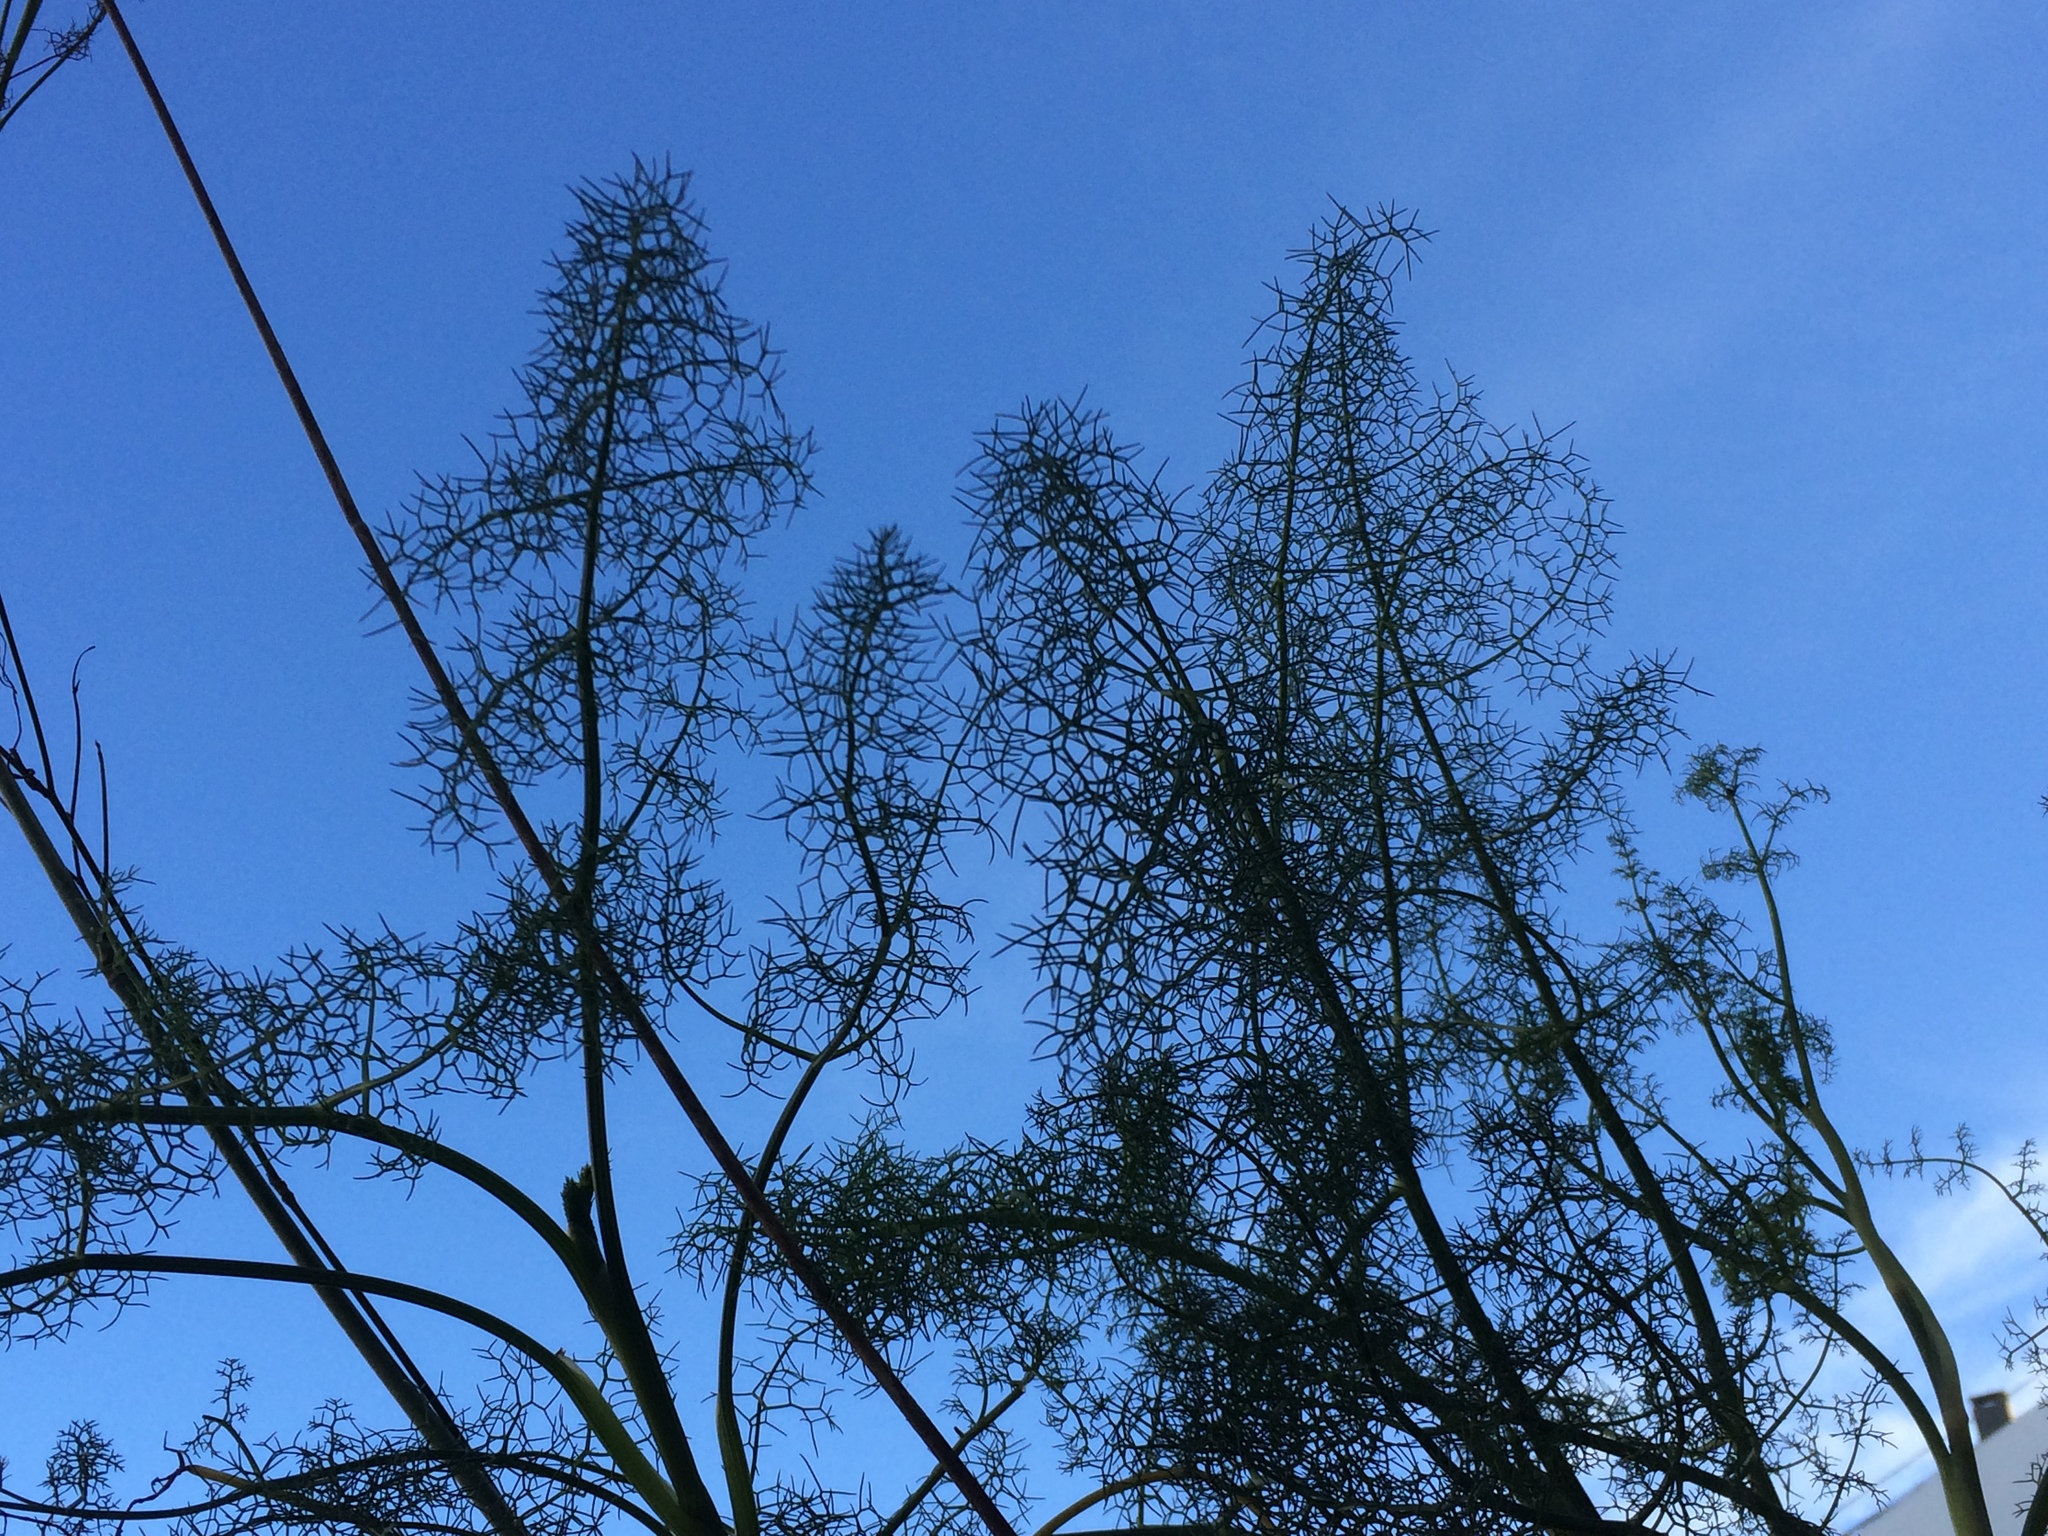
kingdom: Plantae
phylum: Tracheophyta
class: Magnoliopsida
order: Apiales
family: Apiaceae
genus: Foeniculum
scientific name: Foeniculum vulgare
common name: Fennel
